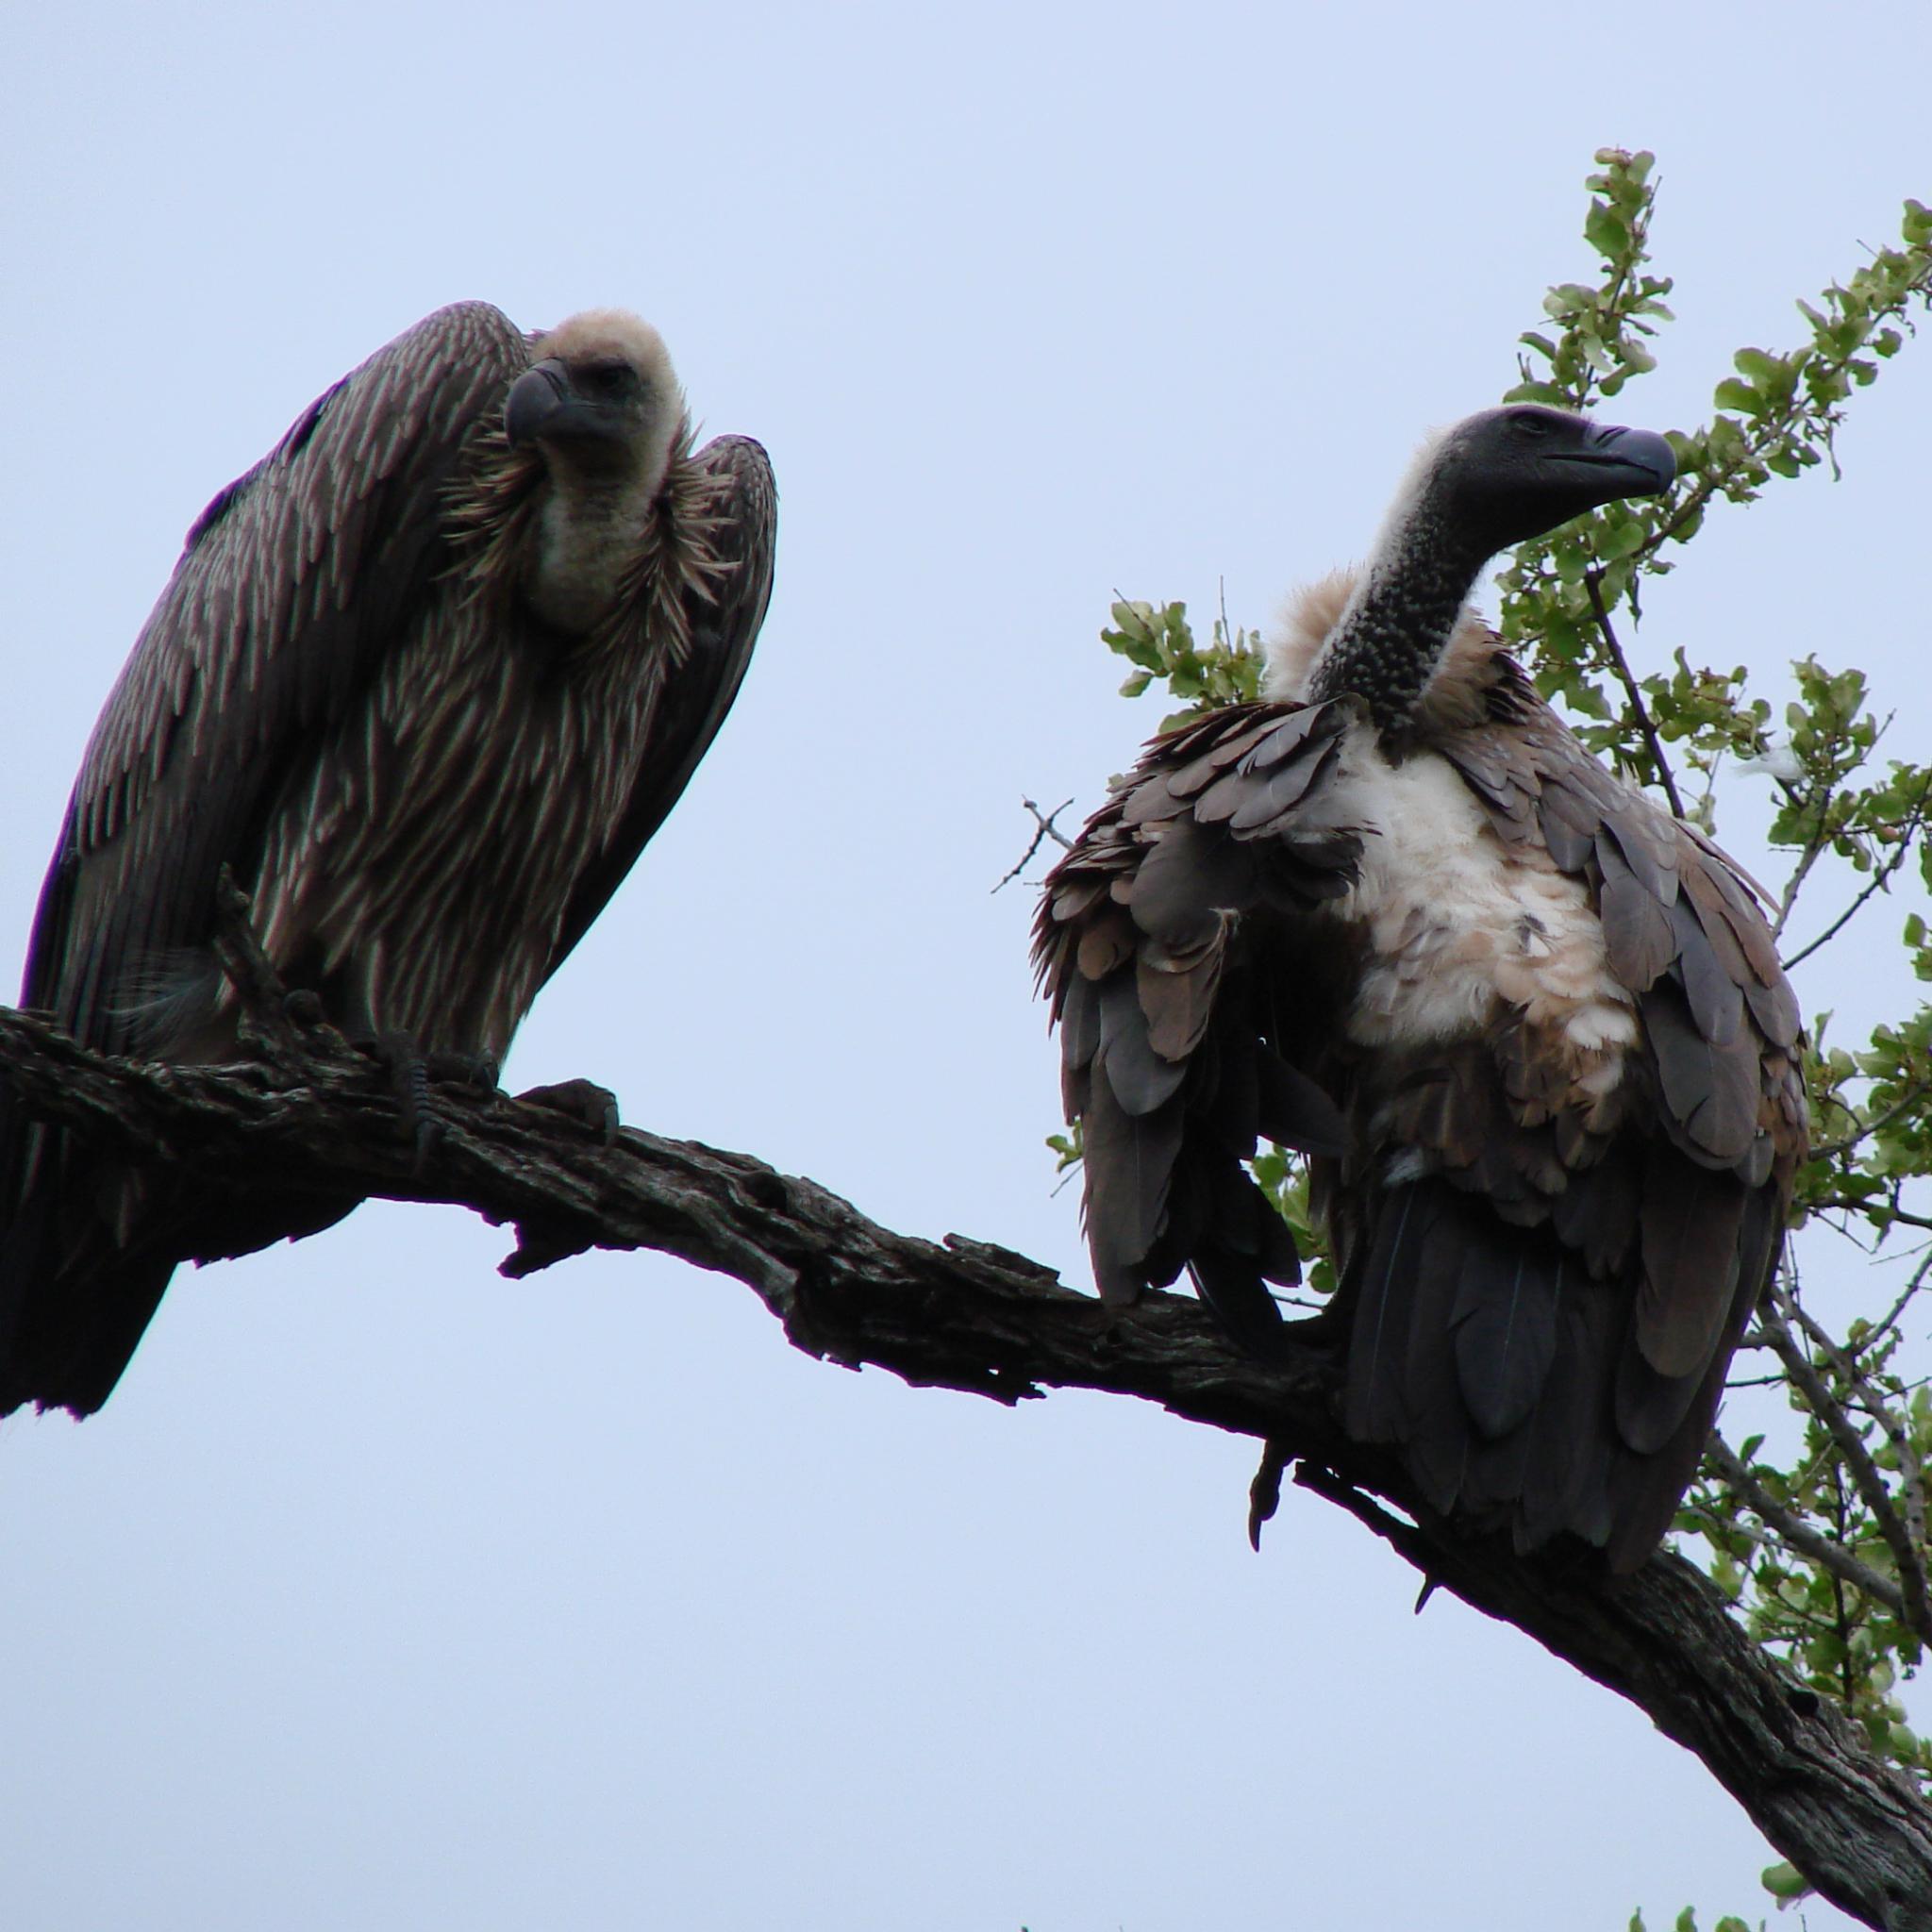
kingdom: Animalia
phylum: Chordata
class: Aves
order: Accipitriformes
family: Accipitridae
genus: Gyps
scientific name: Gyps africanus
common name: White-backed vulture
